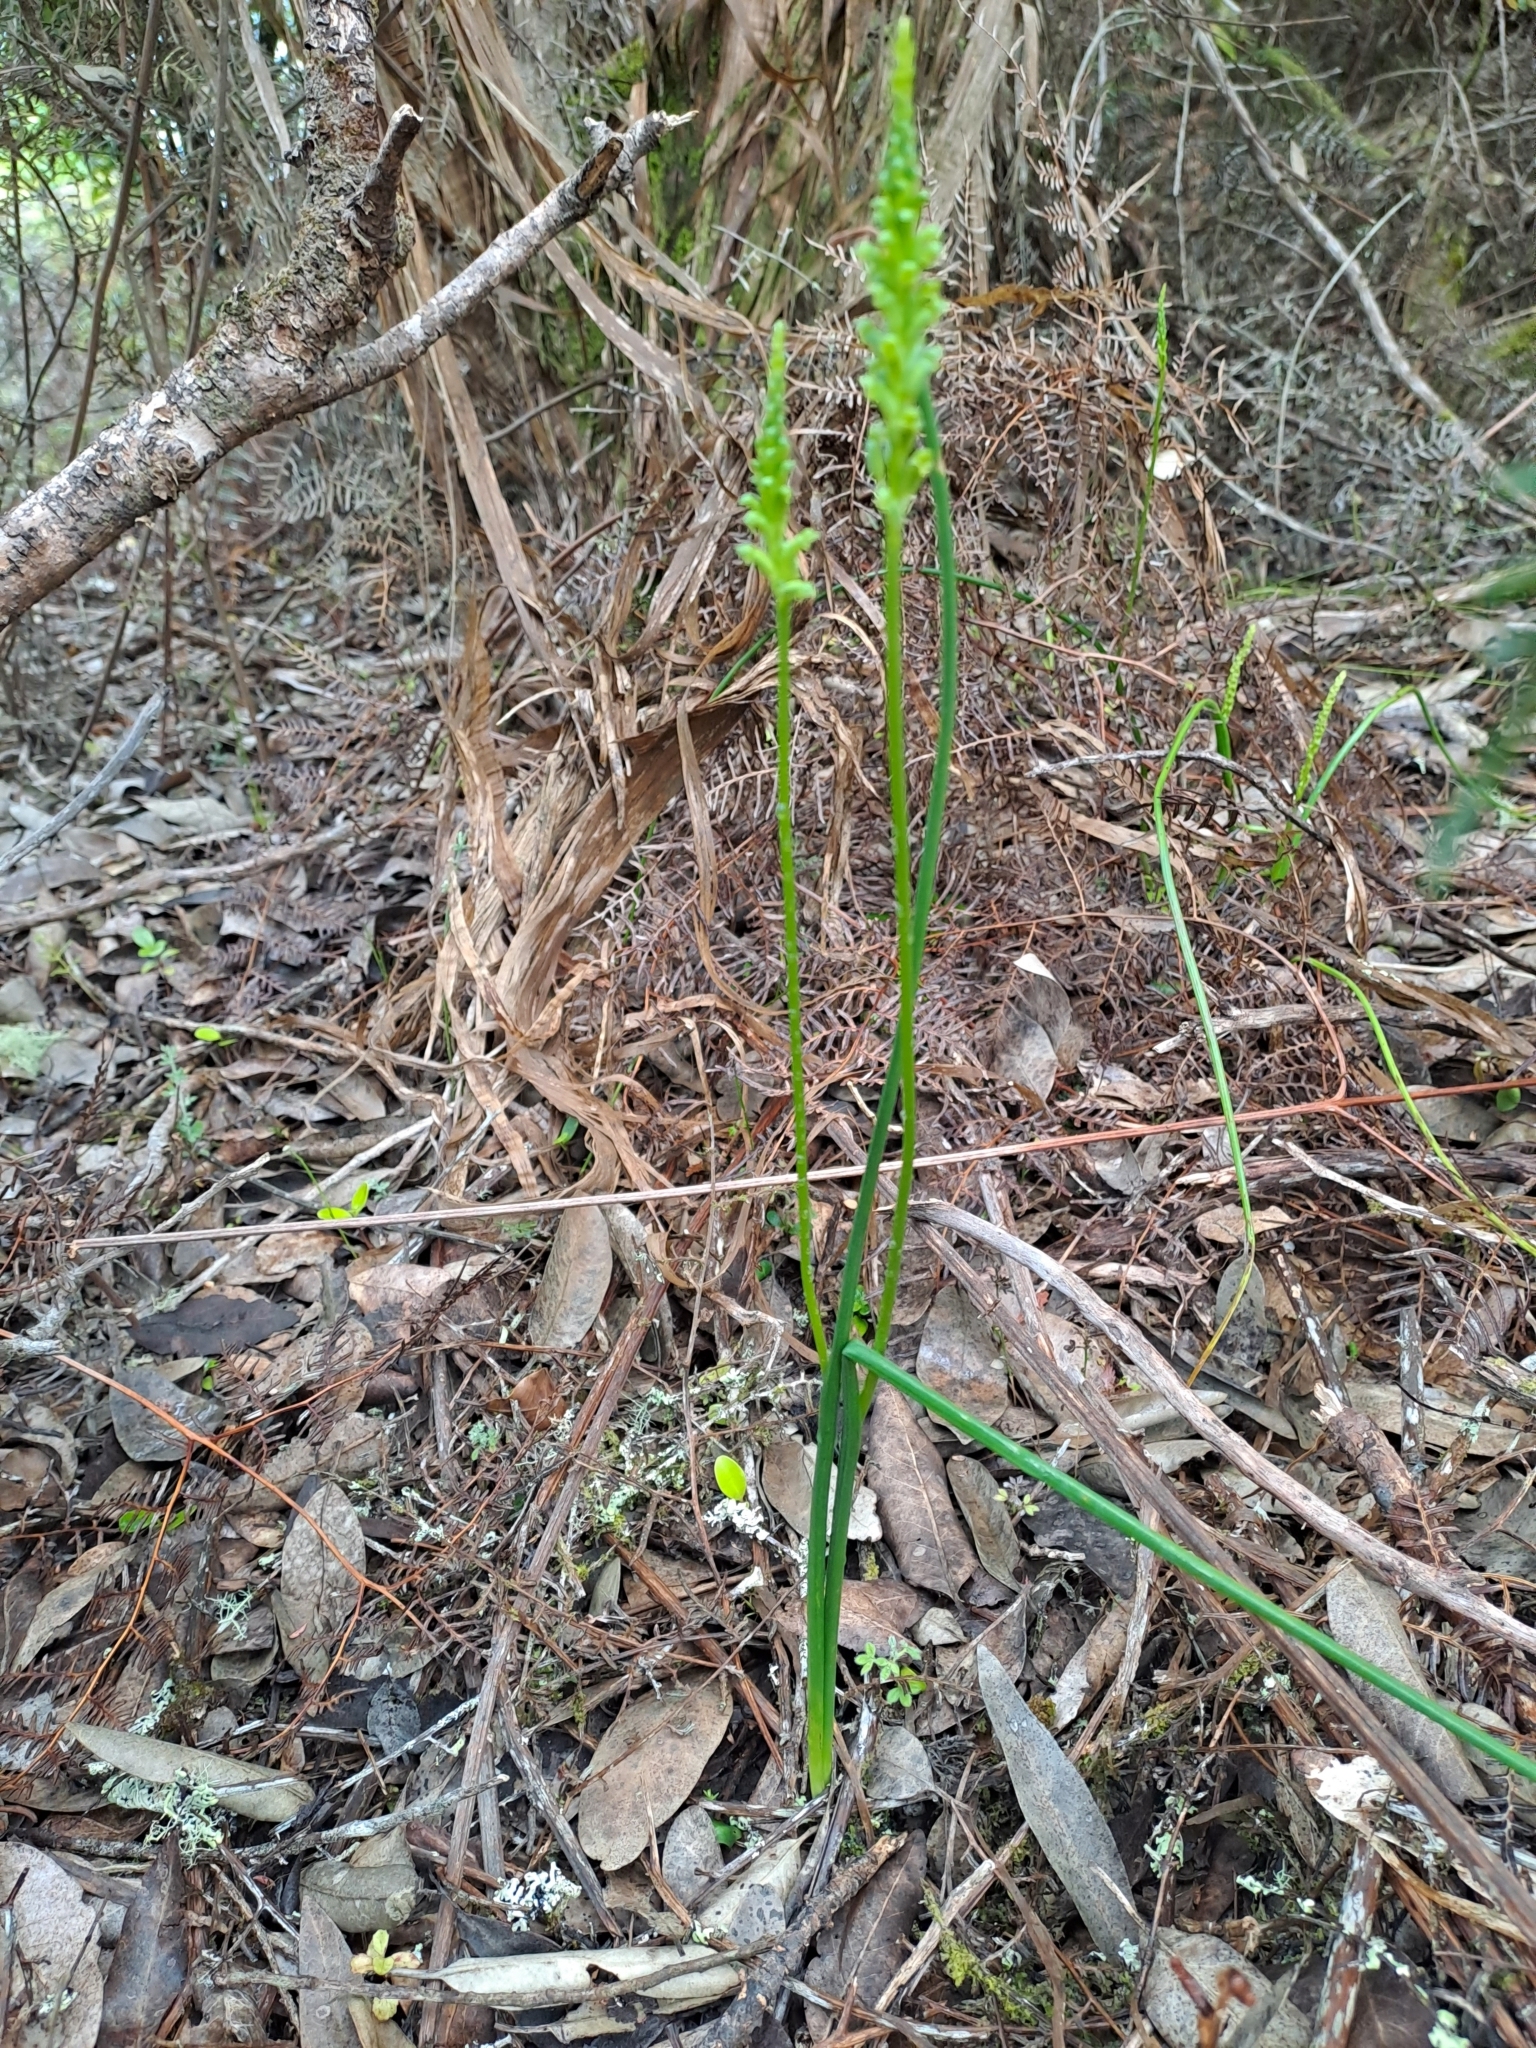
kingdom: Plantae
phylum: Tracheophyta
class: Liliopsida
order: Asparagales
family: Orchidaceae
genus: Microtis
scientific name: Microtis unifolia
